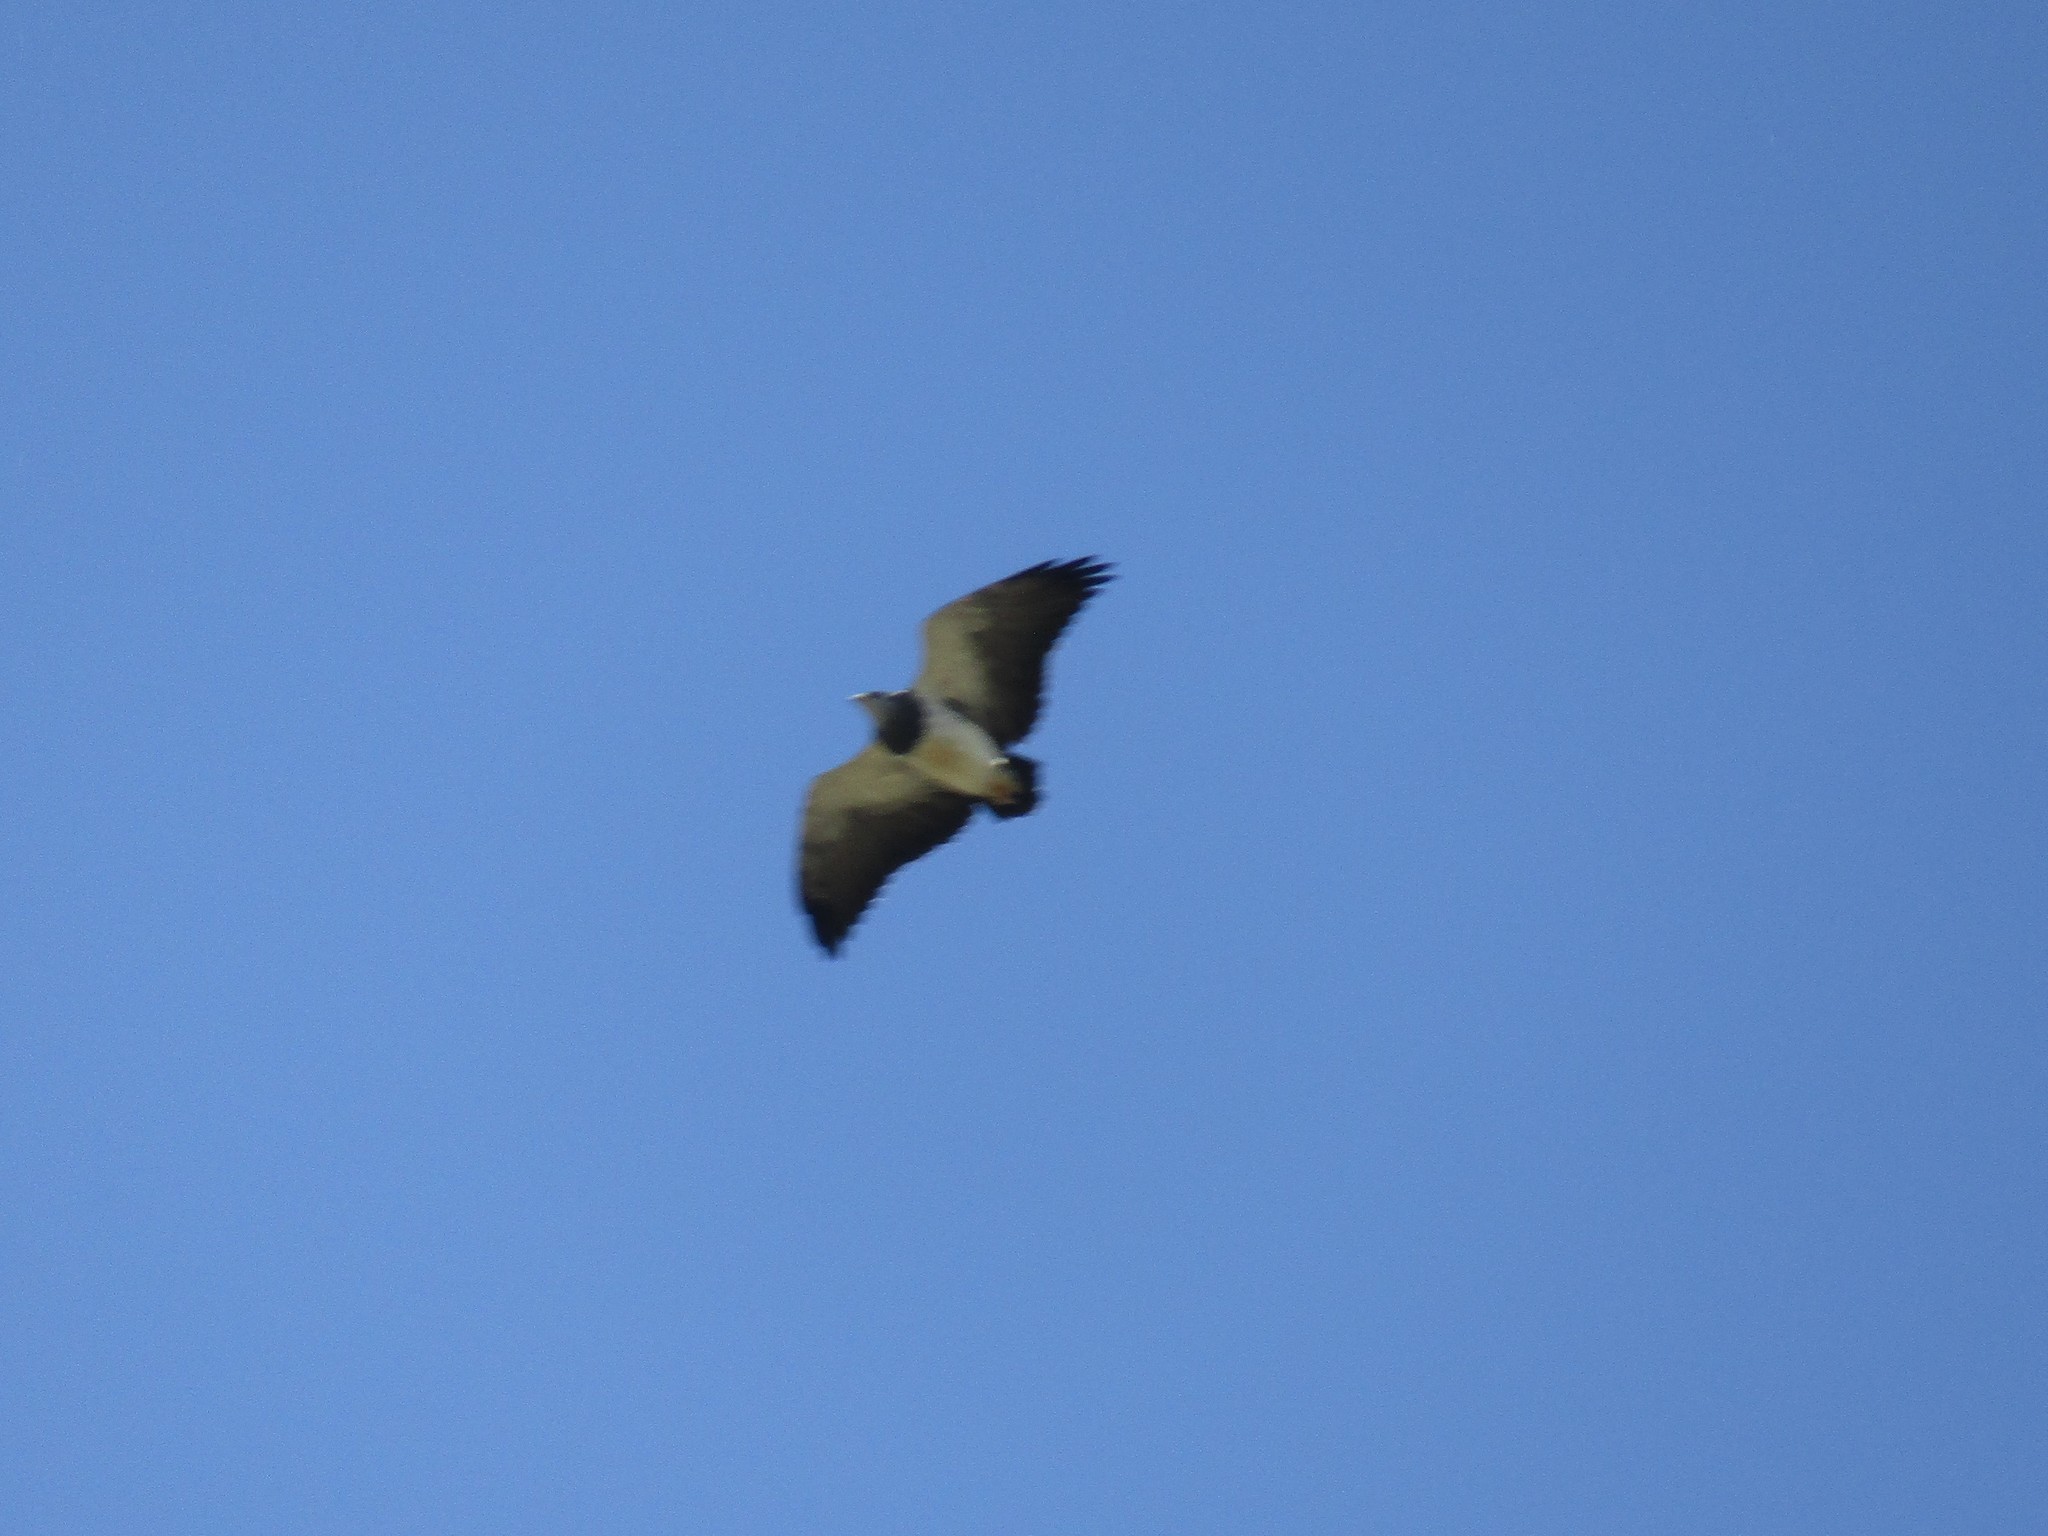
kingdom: Animalia
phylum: Chordata
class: Aves
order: Accipitriformes
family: Accipitridae
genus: Geranoaetus
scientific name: Geranoaetus melanoleucus
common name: Black-chested buzzard-eagle
